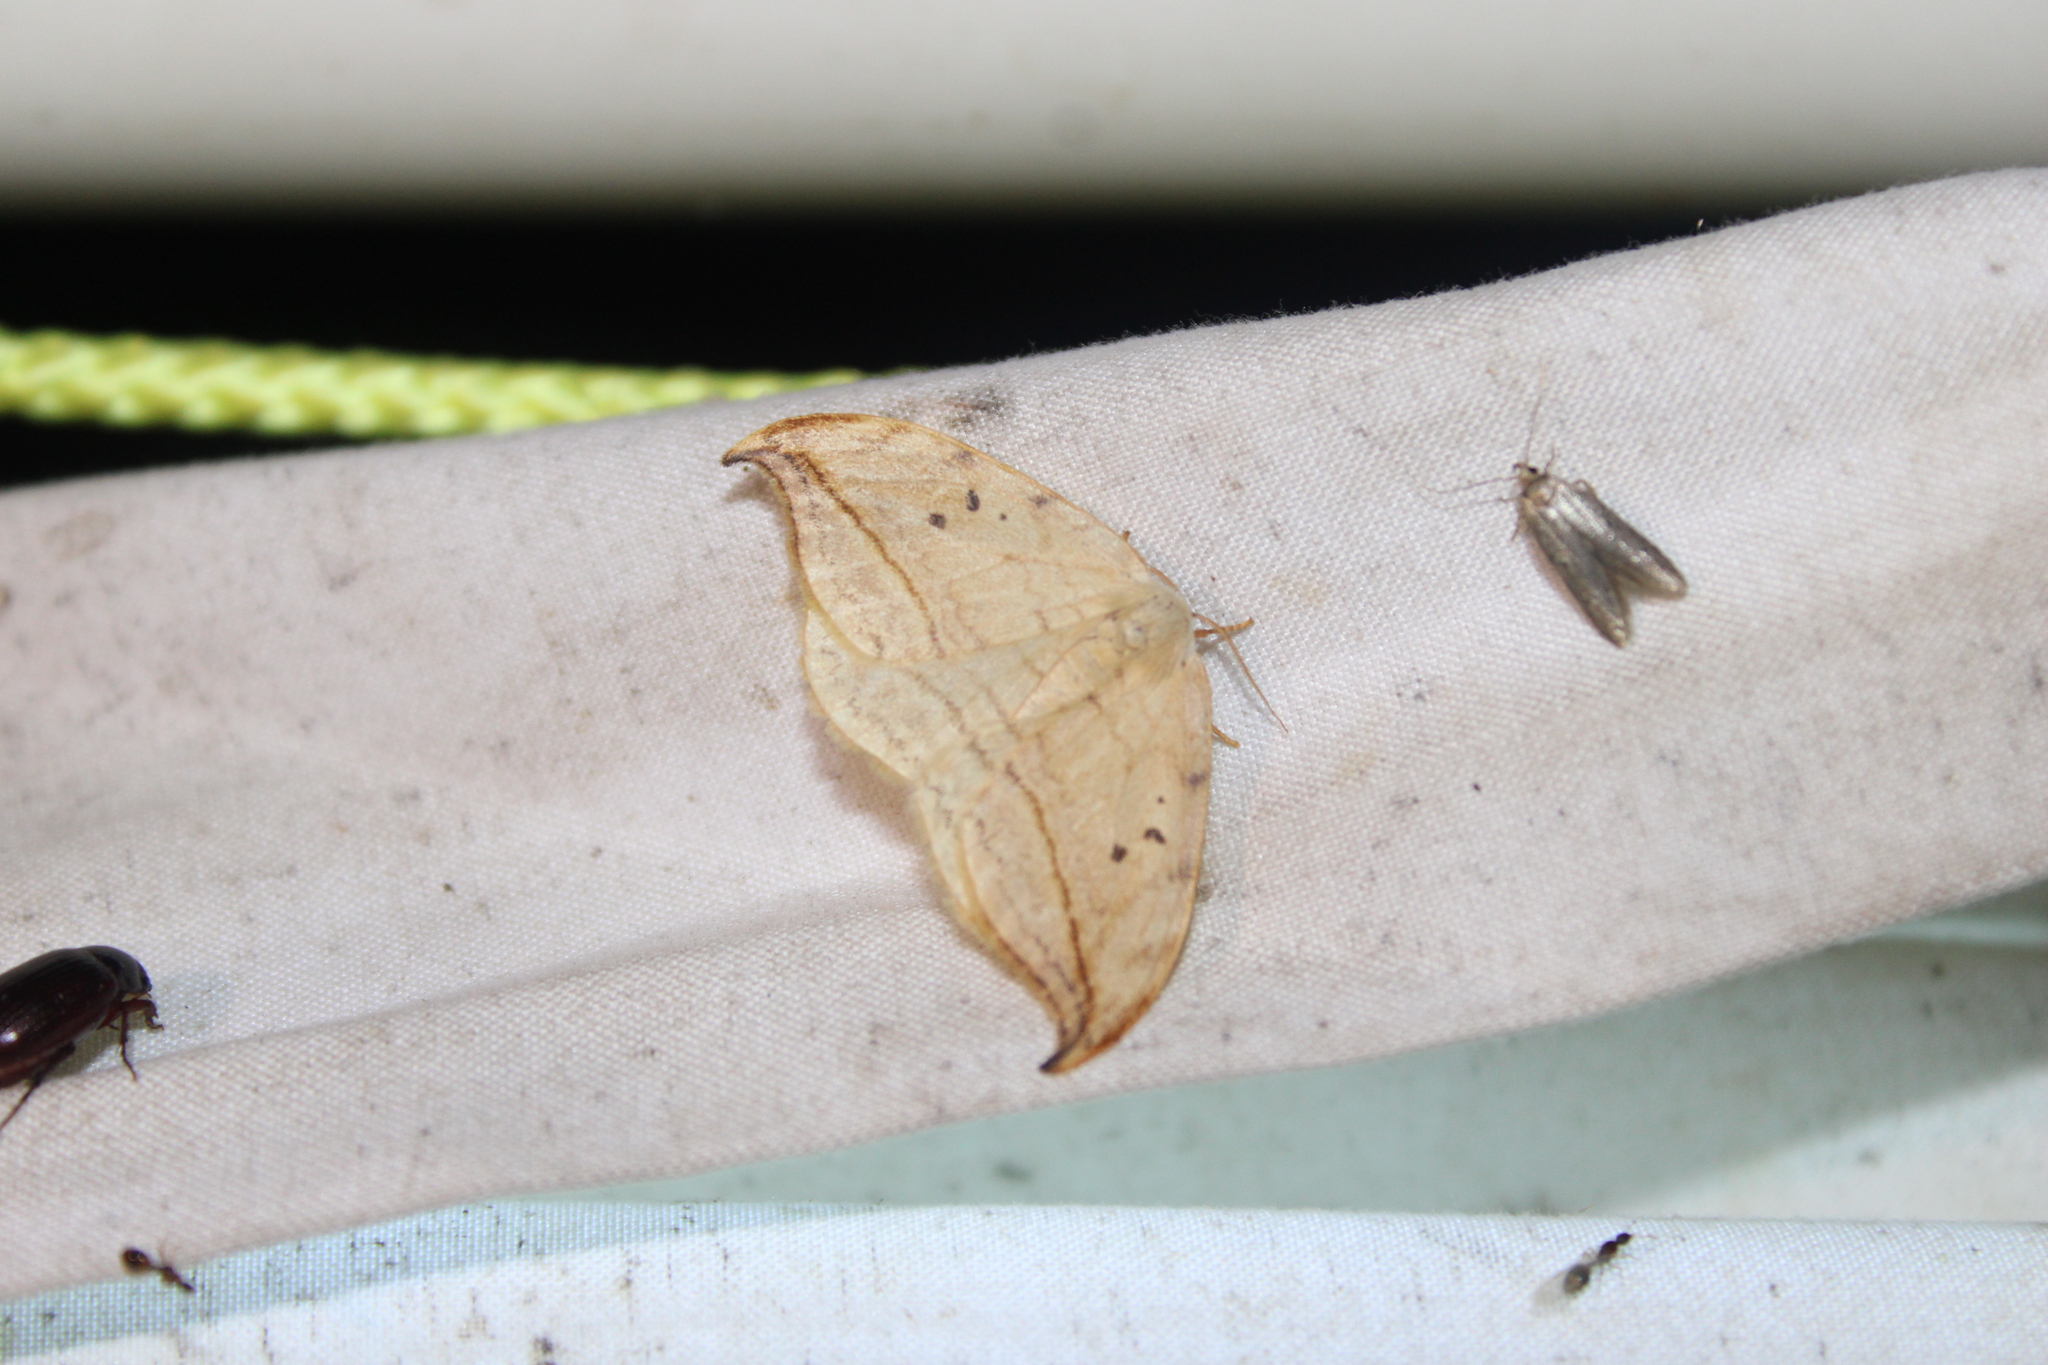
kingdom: Animalia
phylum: Arthropoda
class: Insecta
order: Lepidoptera
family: Drepanidae
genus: Drepana
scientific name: Drepana arcuata
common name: Arched hooktip moth
